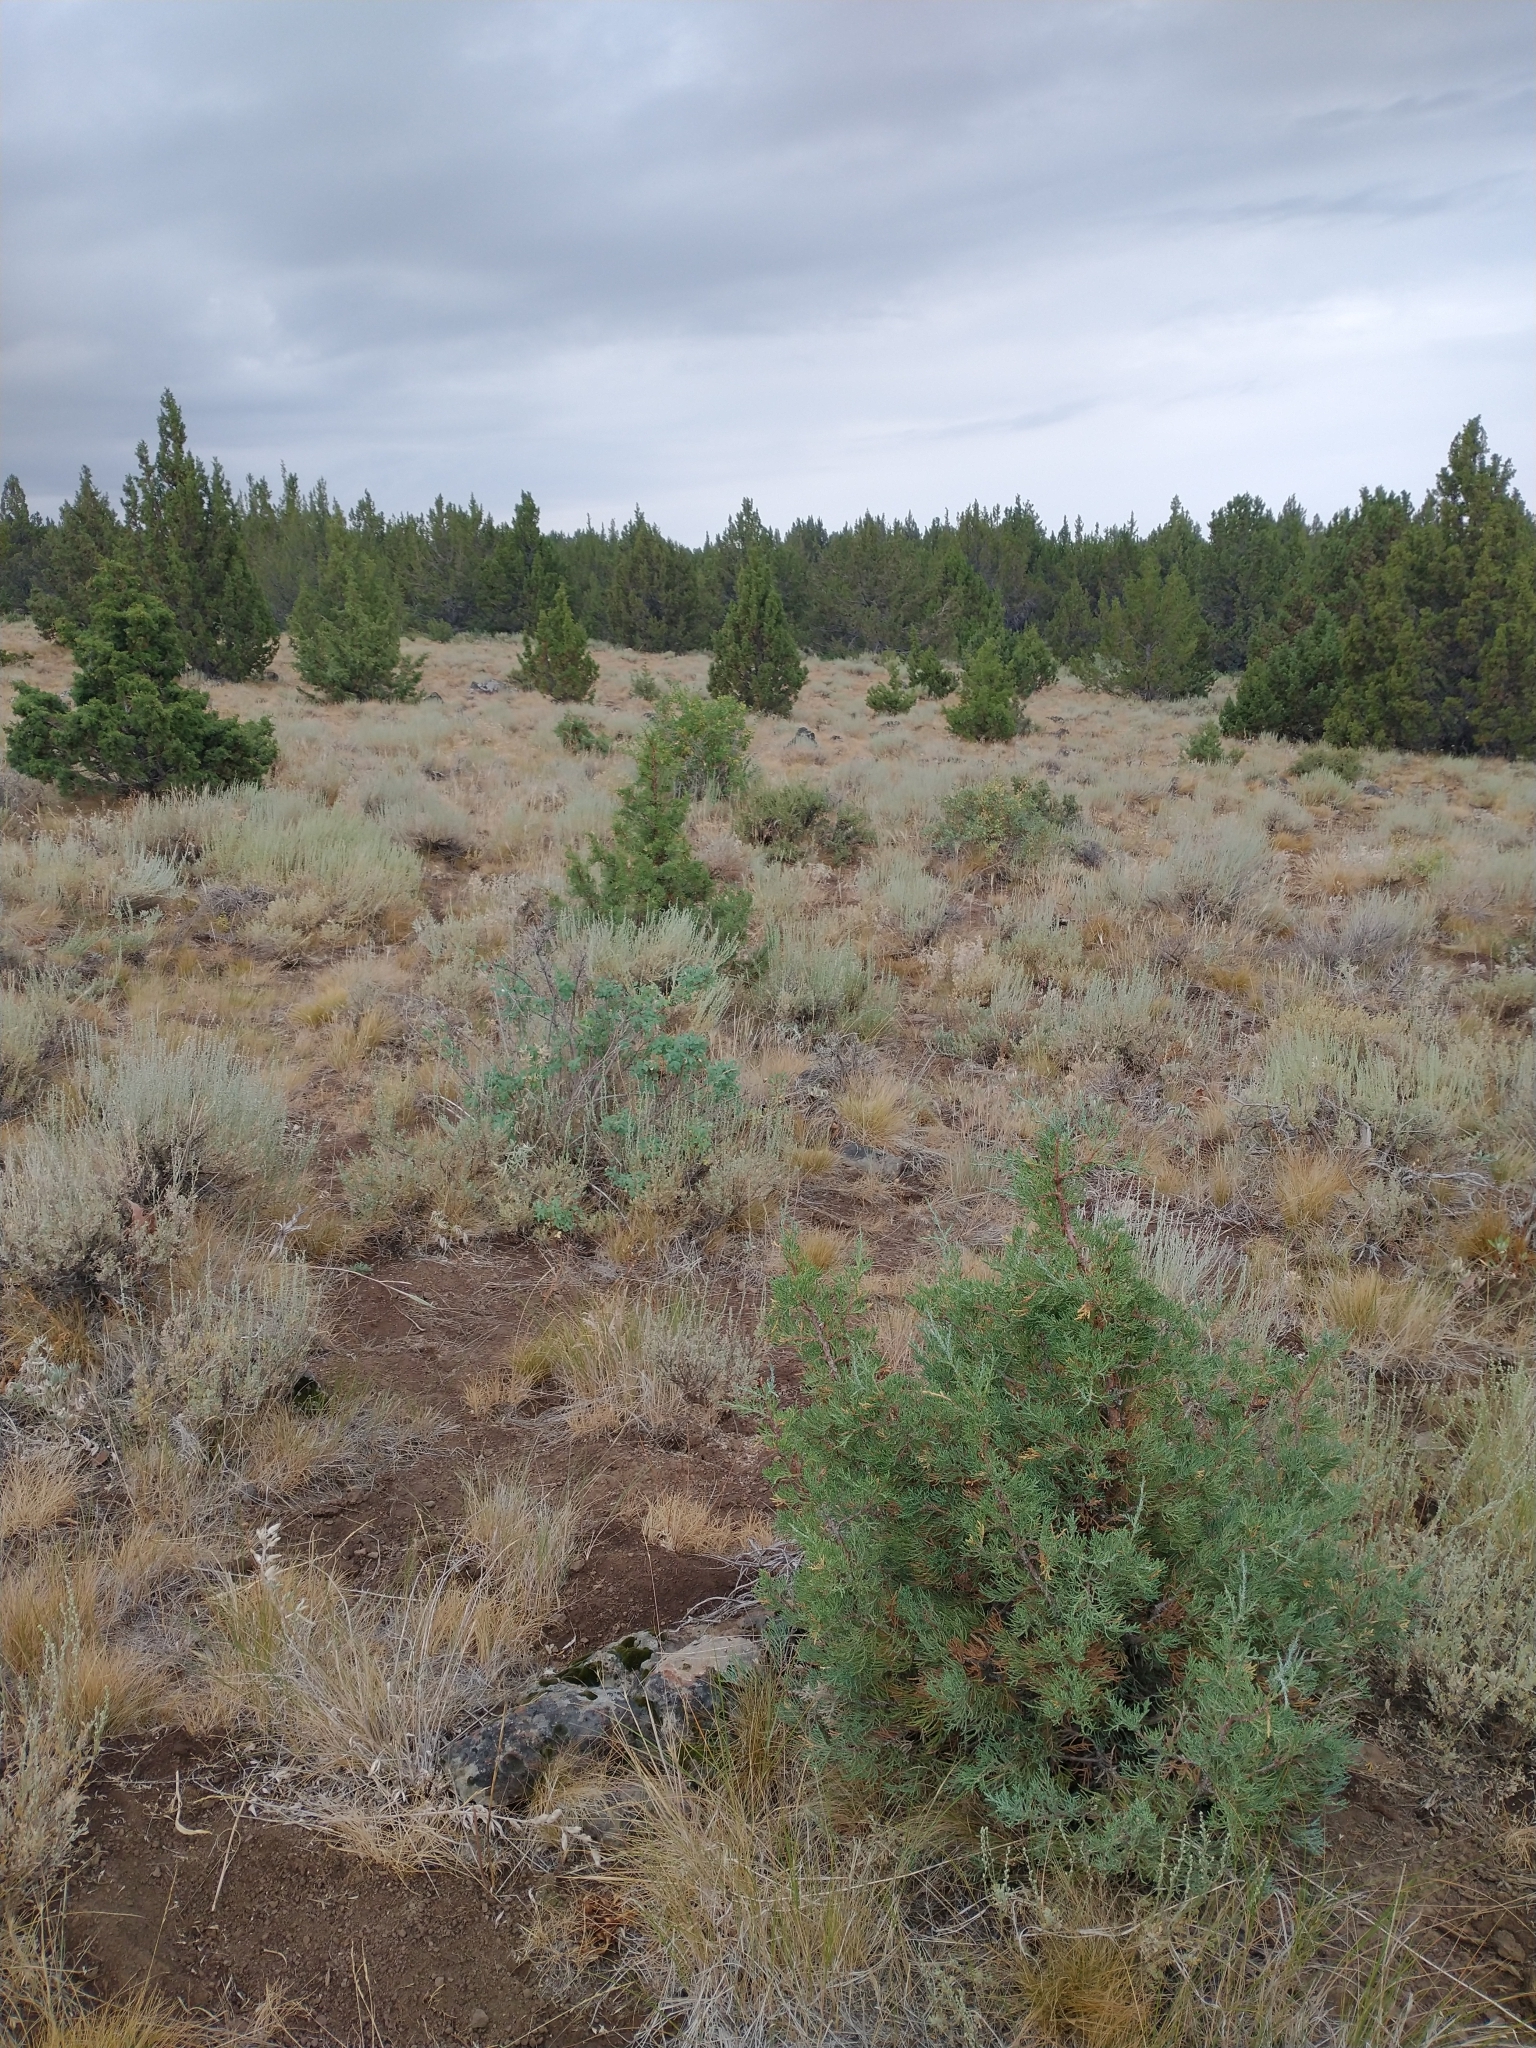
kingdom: Plantae
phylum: Tracheophyta
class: Pinopsida
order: Pinales
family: Cupressaceae
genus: Juniperus
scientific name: Juniperus occidentalis
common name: Western juniper
